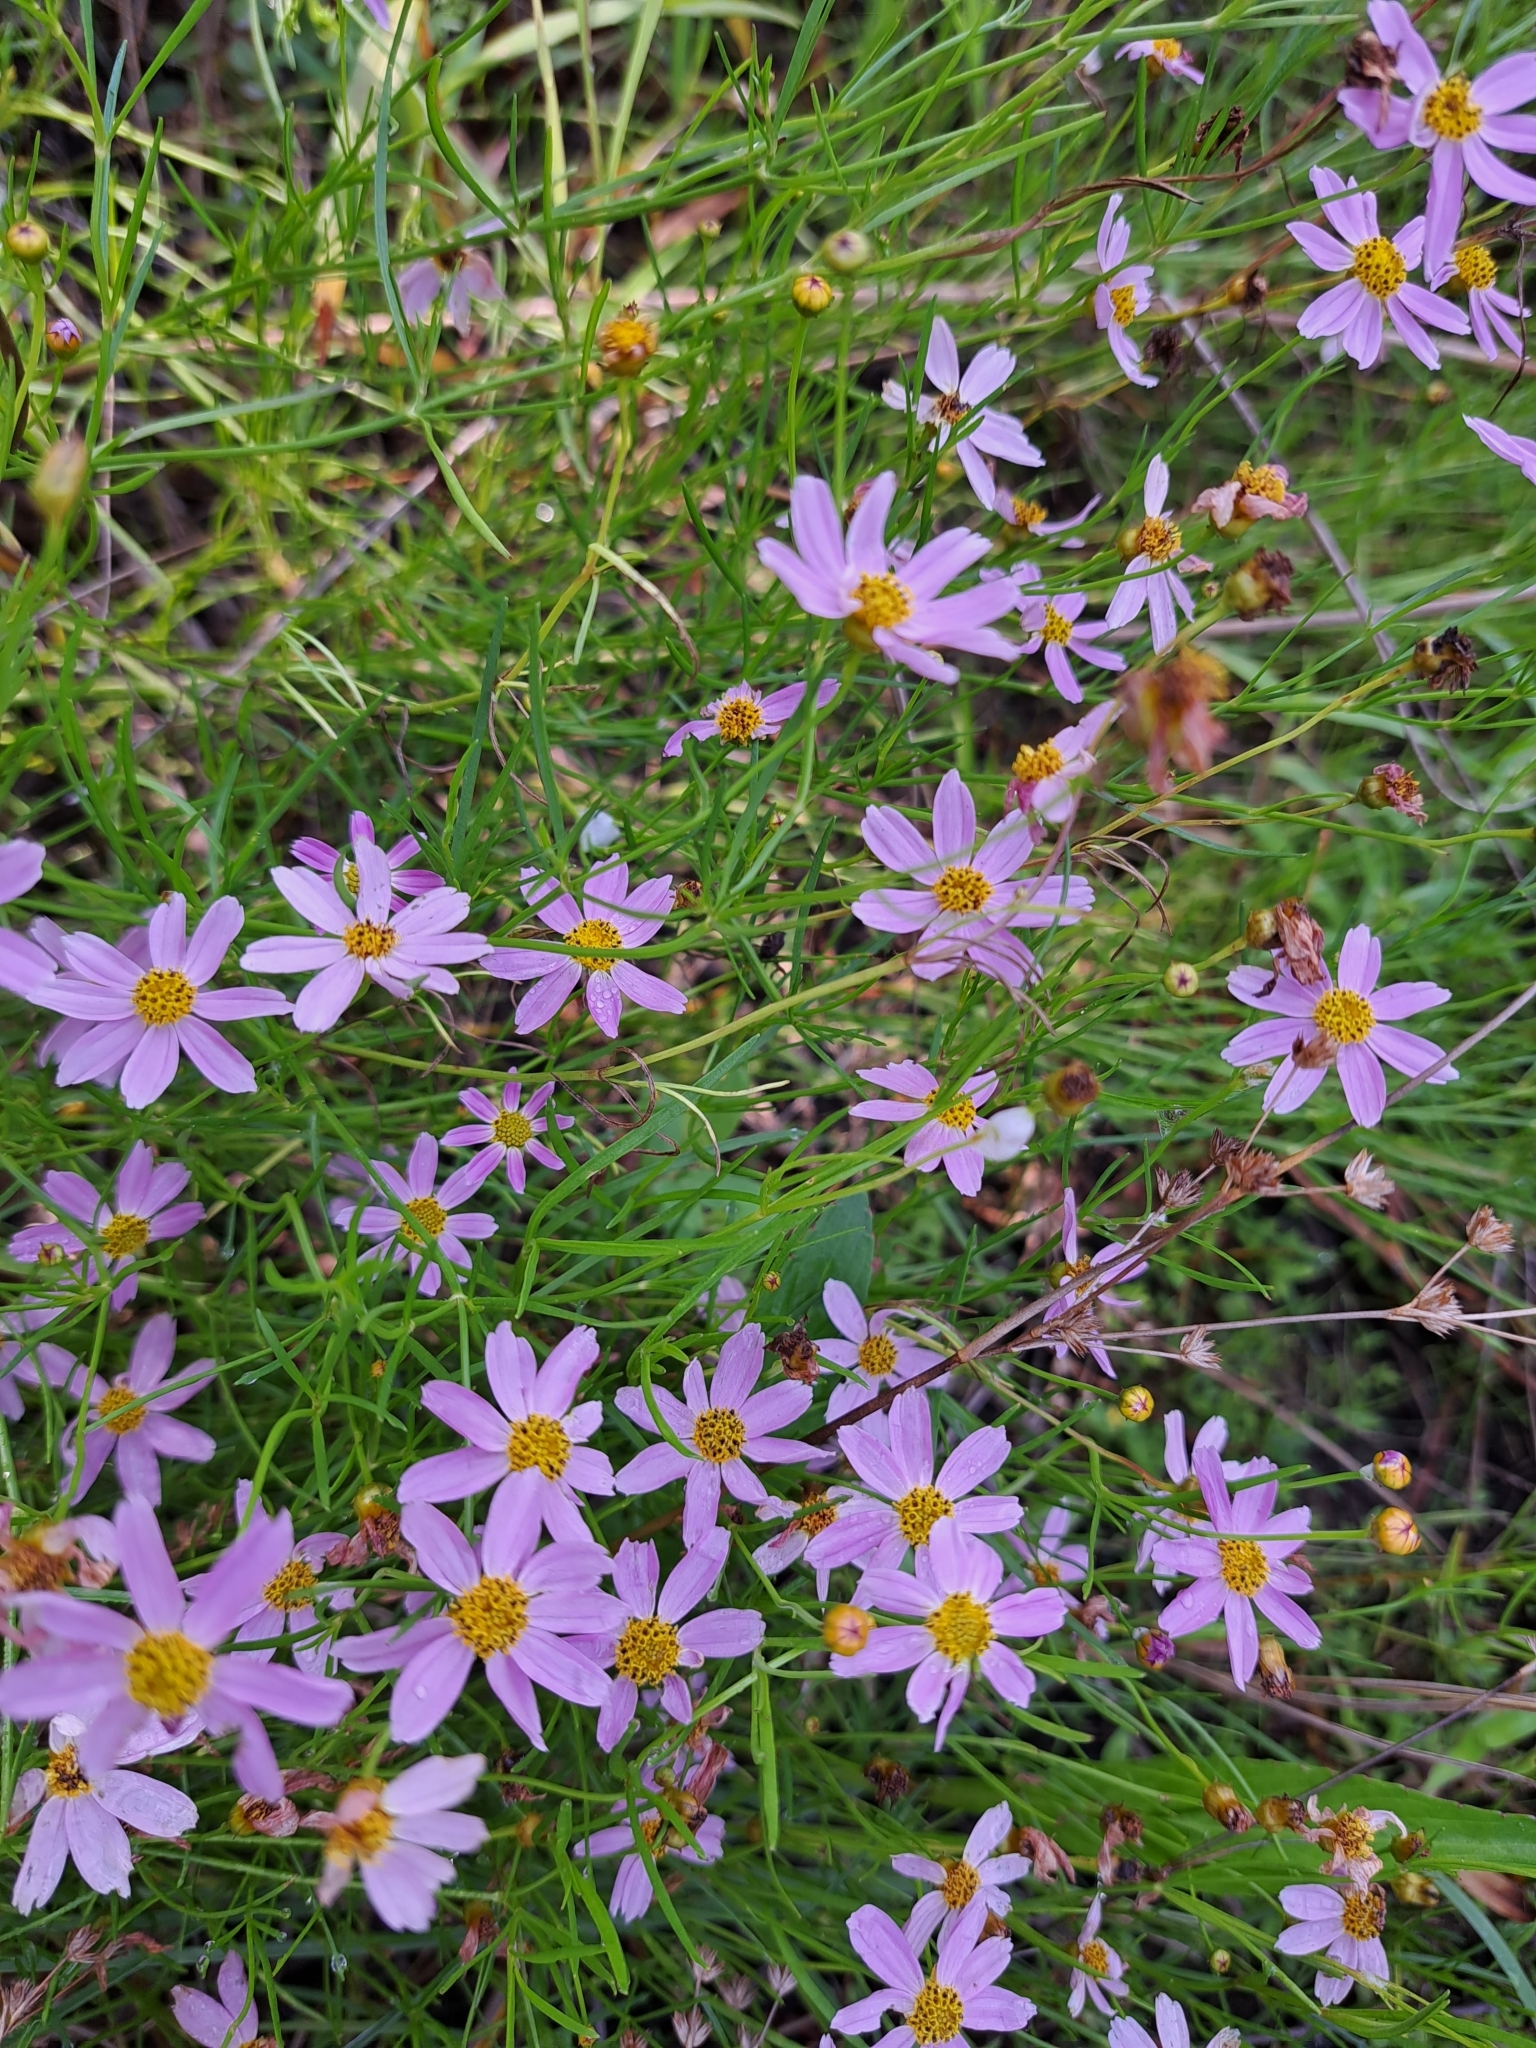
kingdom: Plantae
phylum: Tracheophyta
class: Magnoliopsida
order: Asterales
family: Asteraceae
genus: Coreopsis
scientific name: Coreopsis rosea
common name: Pink coreopsis
